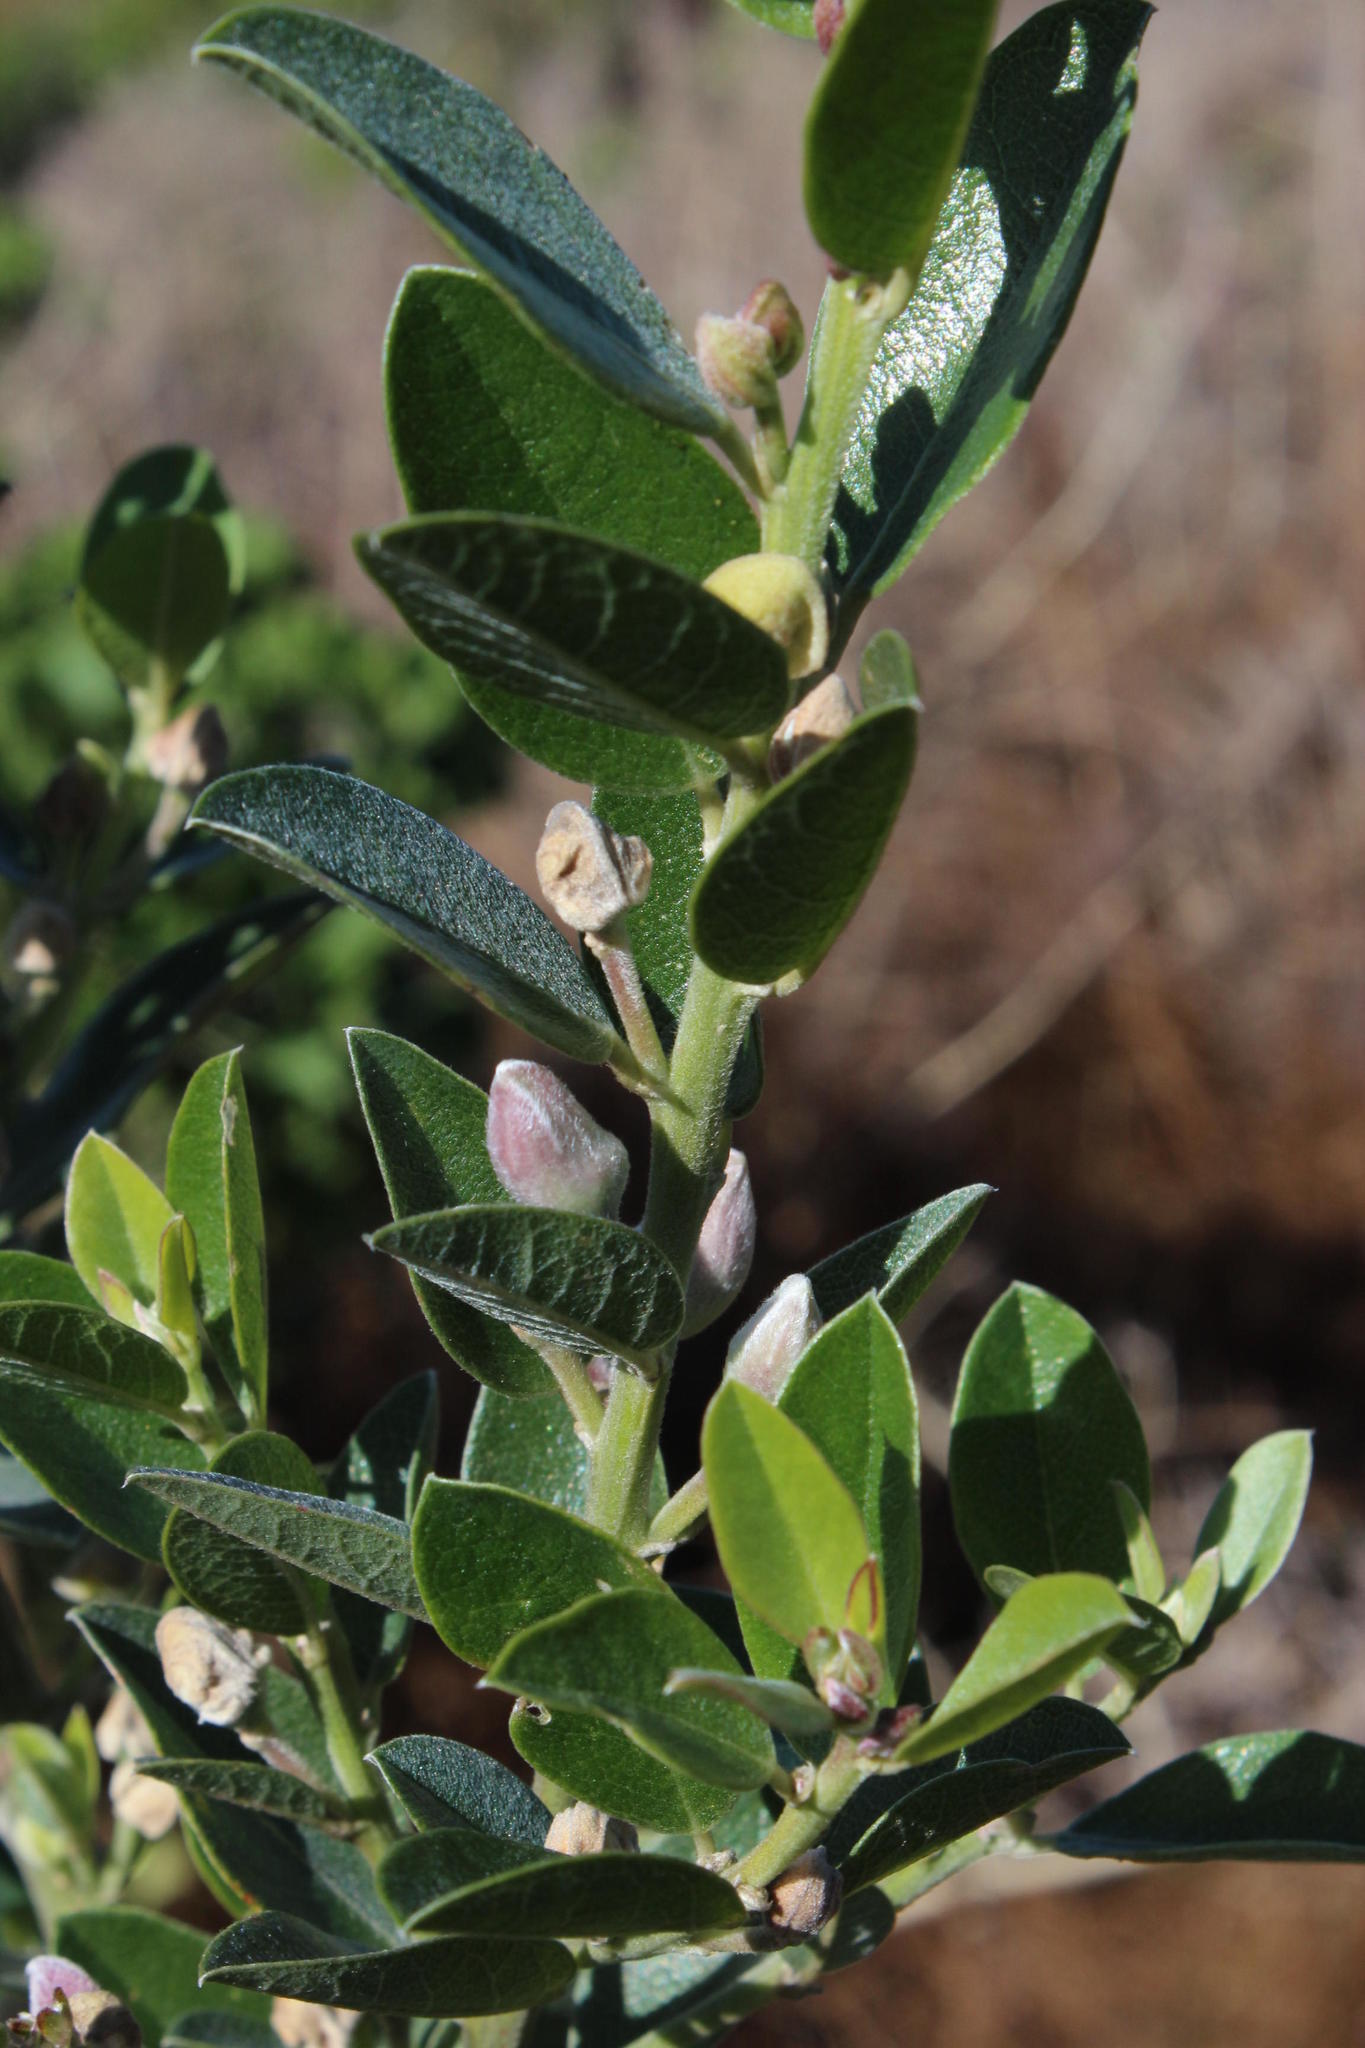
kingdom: Plantae
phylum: Tracheophyta
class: Magnoliopsida
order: Fabales
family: Fabaceae
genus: Podalyria
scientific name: Podalyria calyptrata
